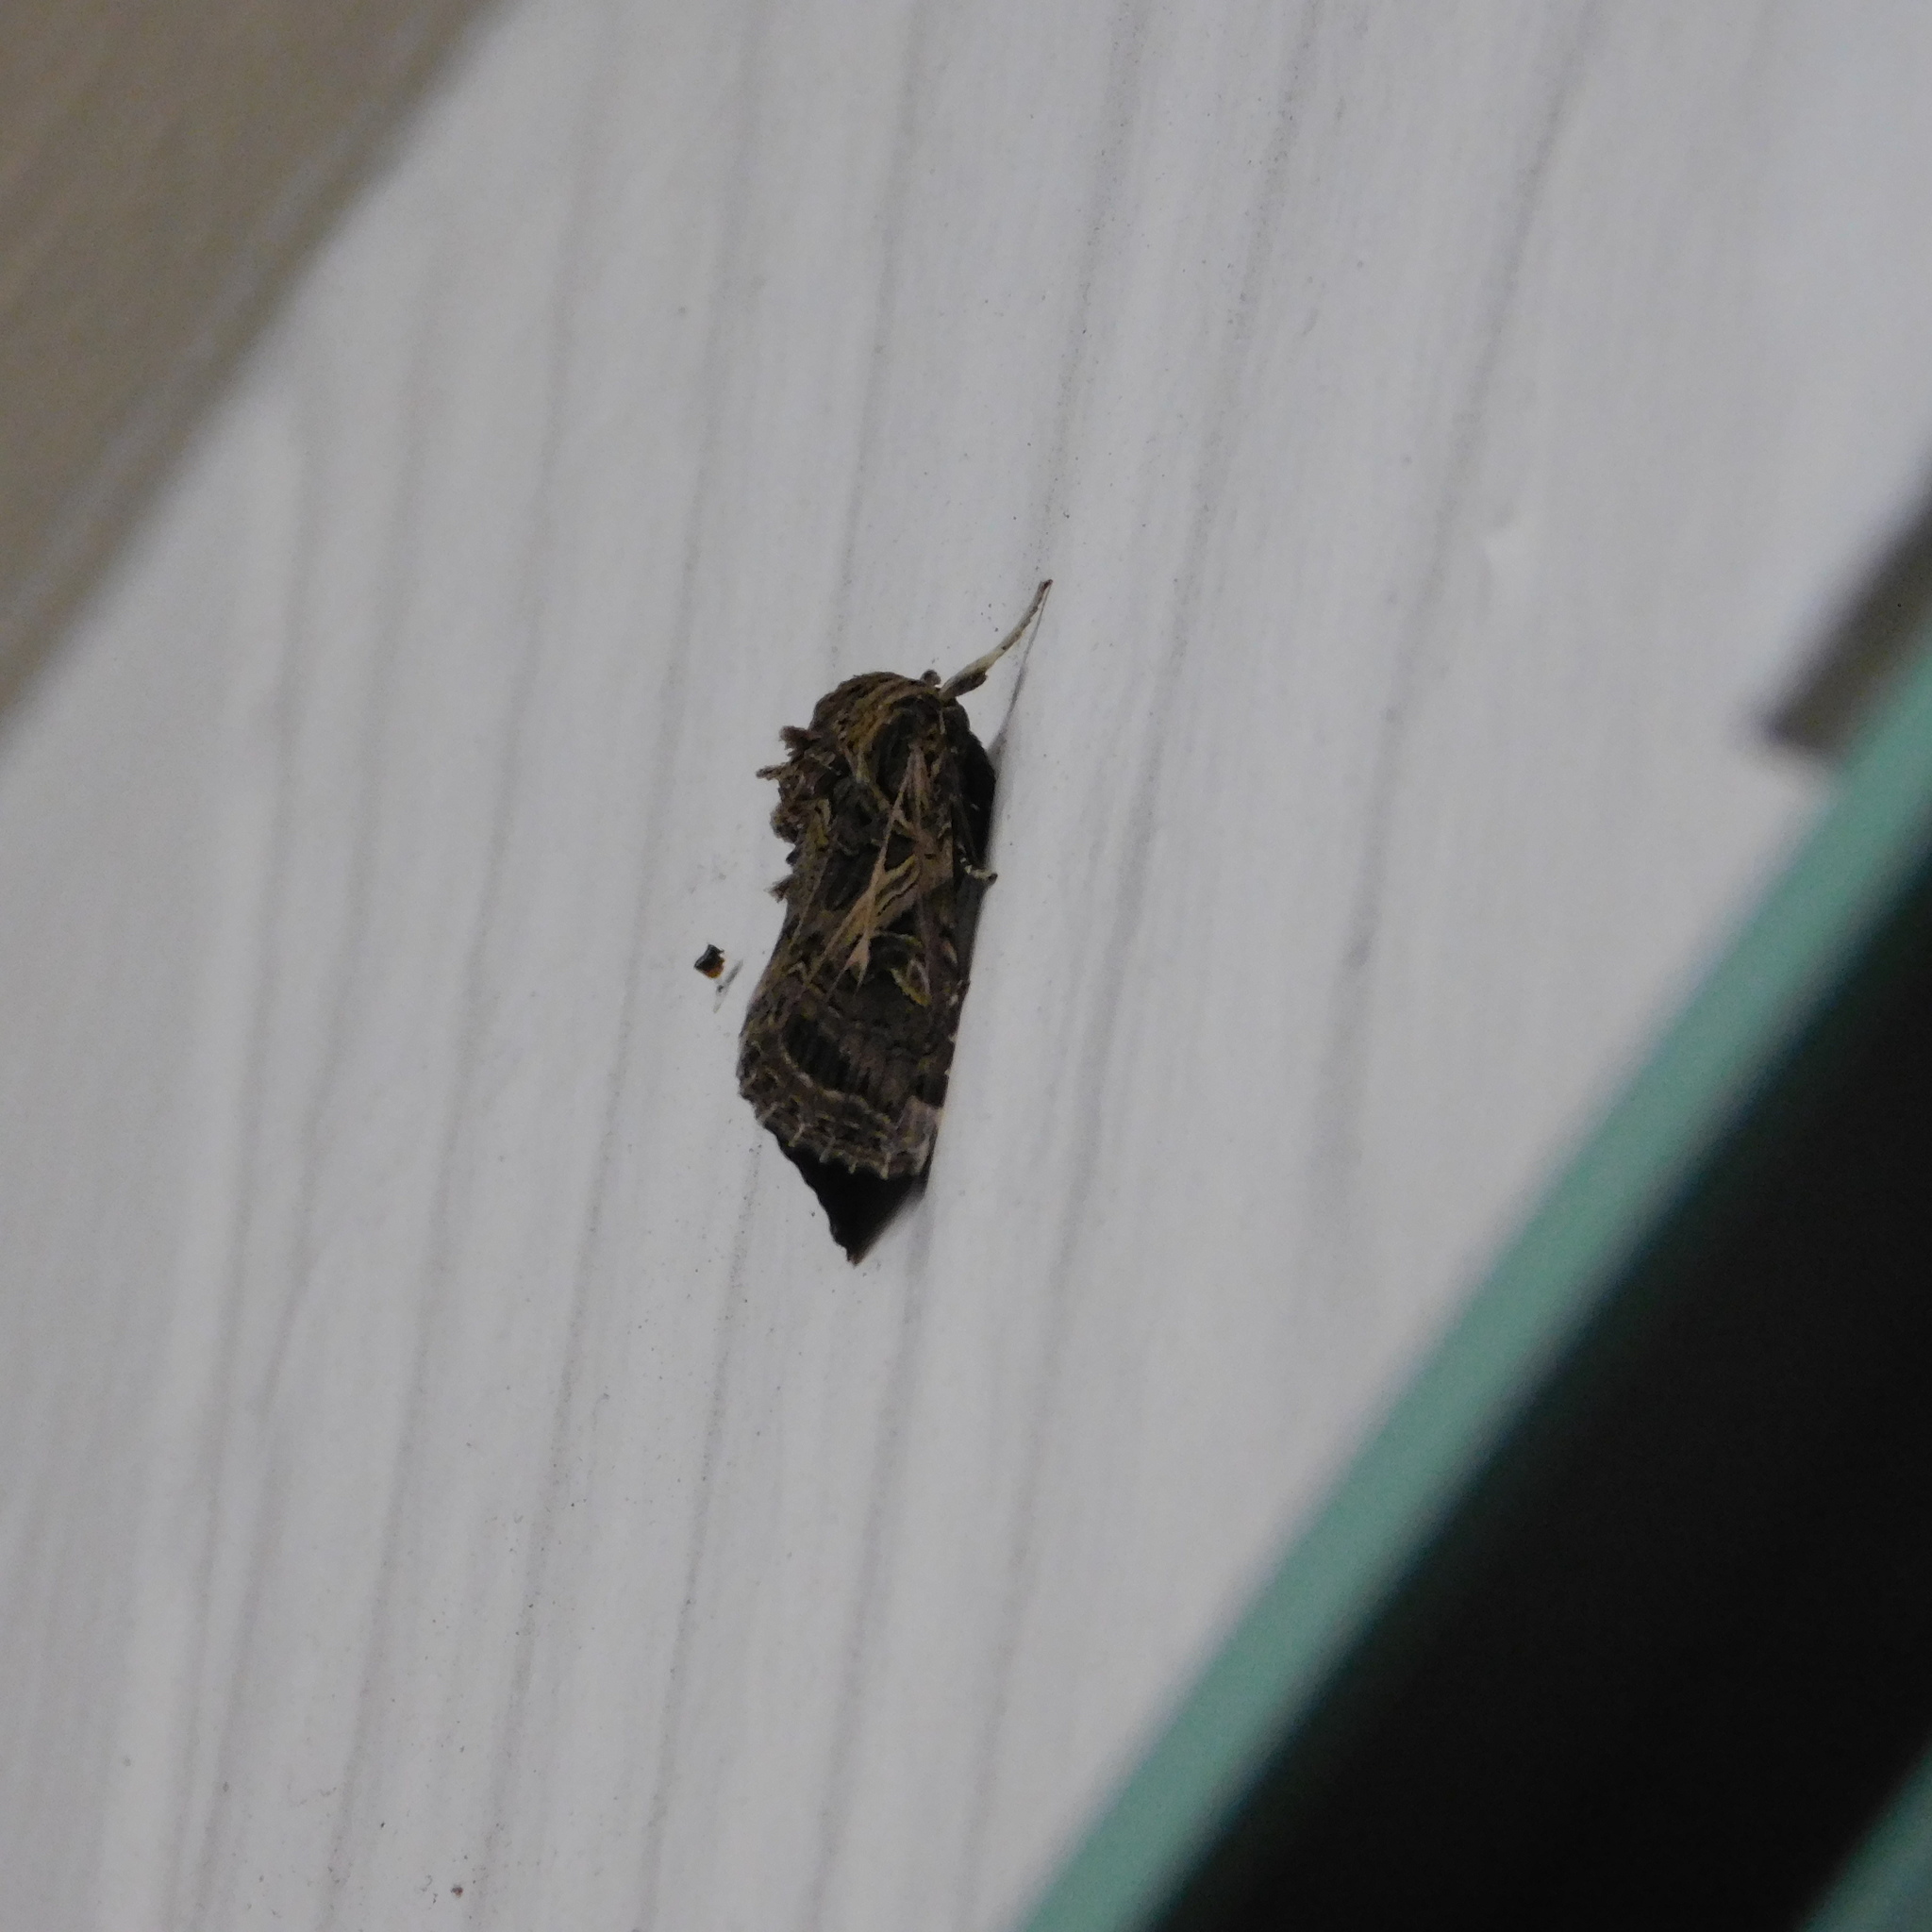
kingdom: Animalia
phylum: Arthropoda
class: Insecta
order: Lepidoptera
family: Noctuidae
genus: Spodoptera
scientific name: Spodoptera litura
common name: Asian cotton leafworm
